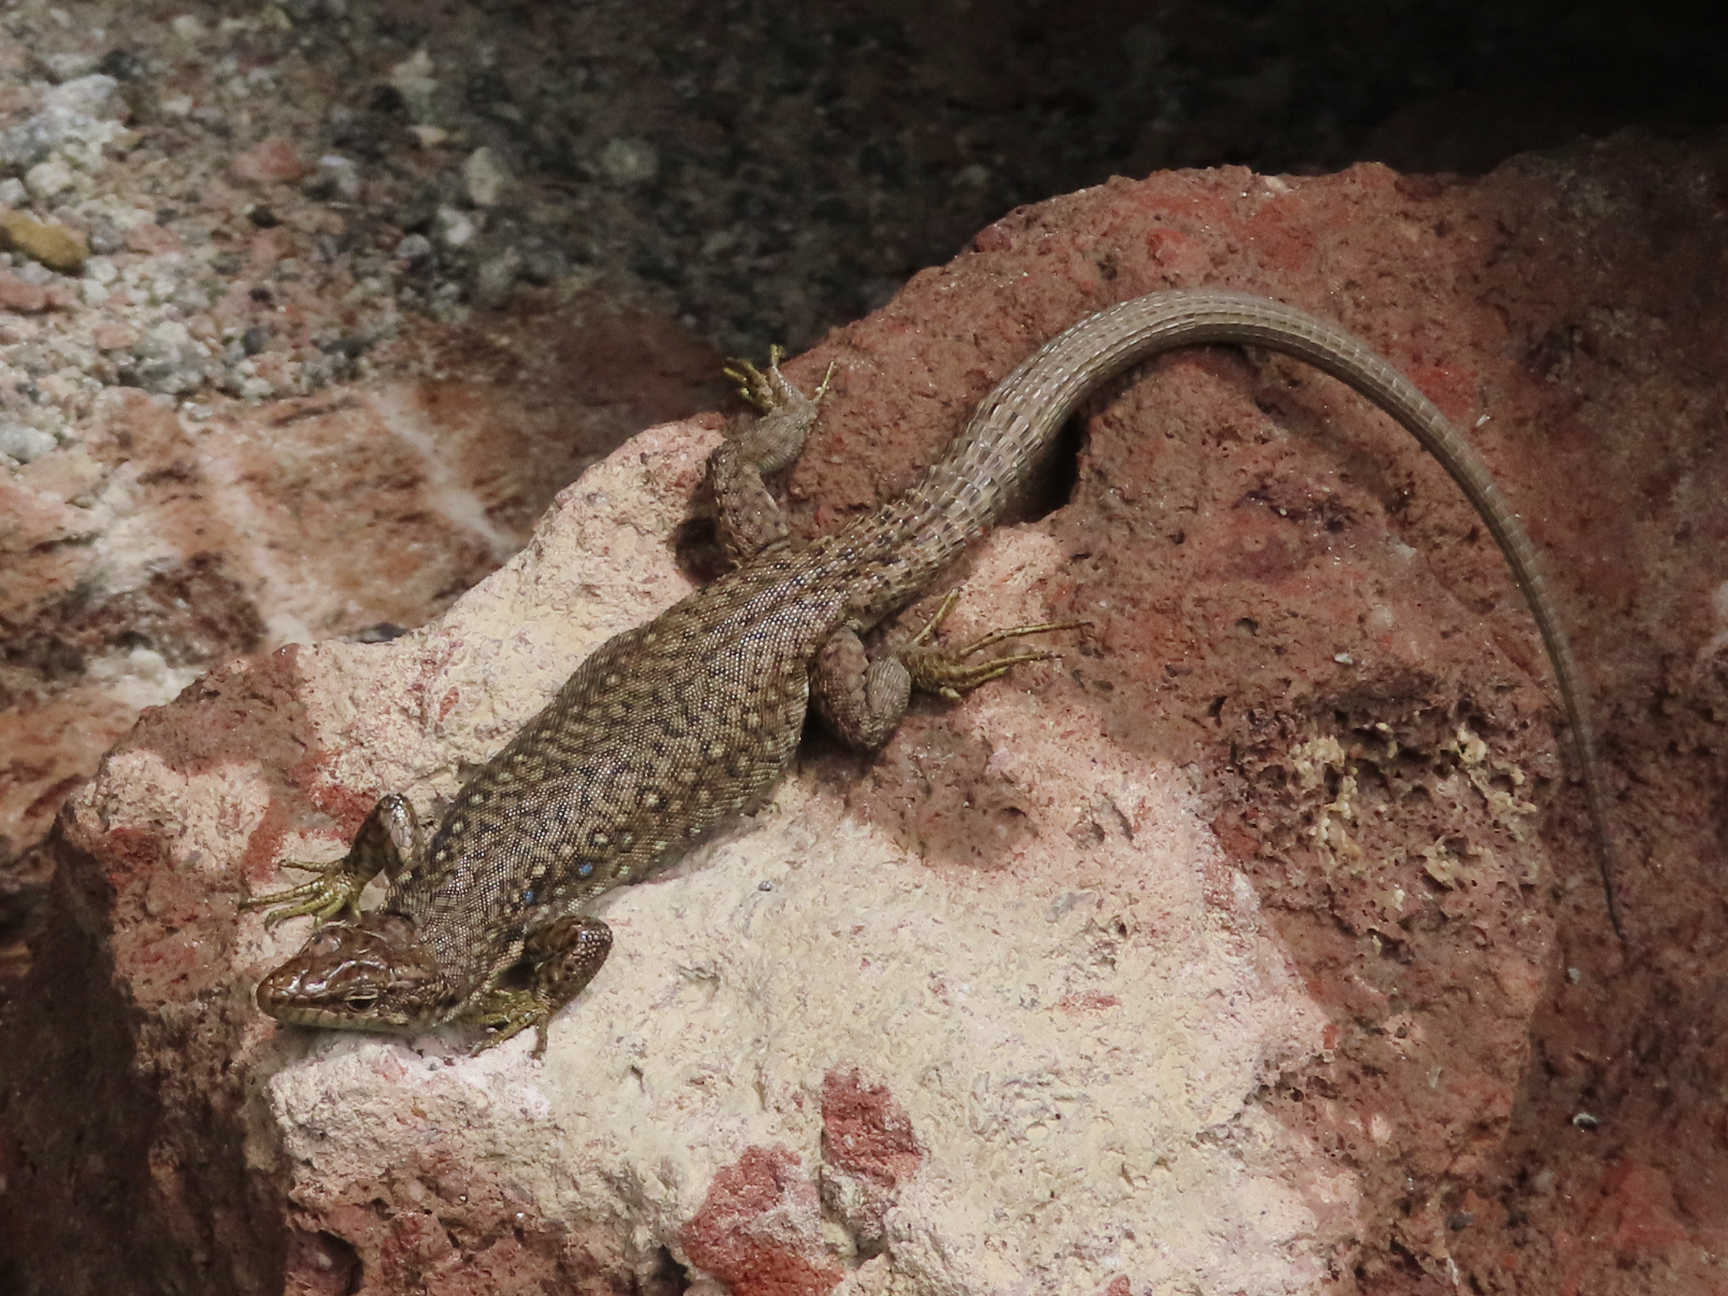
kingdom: Animalia
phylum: Chordata
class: Squamata
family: Lacertidae
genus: Darevskia
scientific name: Darevskia
